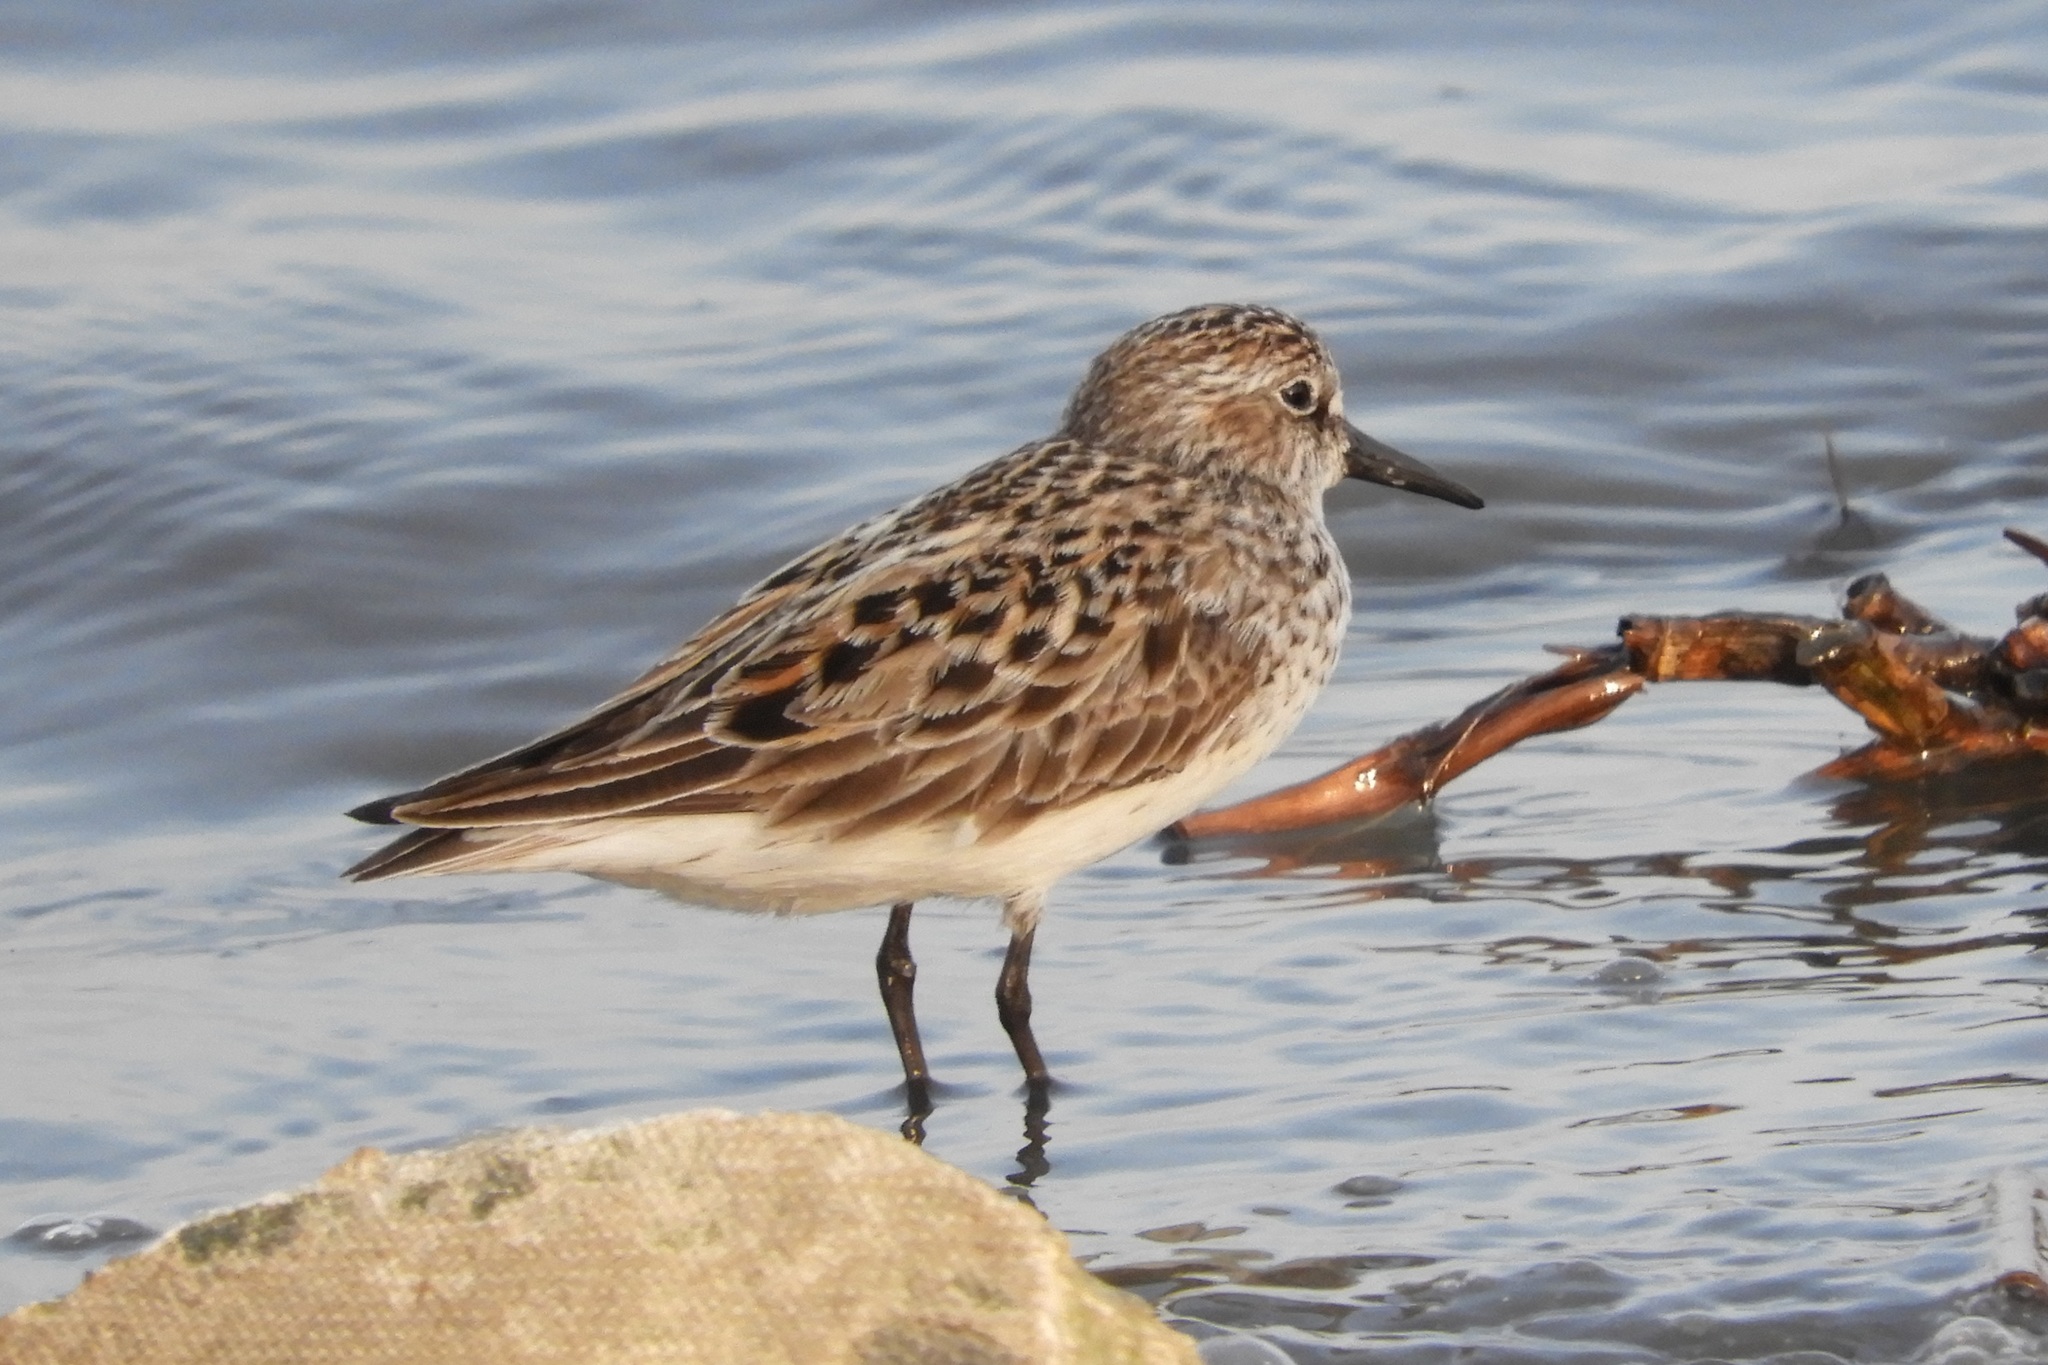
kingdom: Animalia
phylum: Chordata
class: Aves
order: Charadriiformes
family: Scolopacidae
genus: Calidris
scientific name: Calidris pusilla
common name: Semipalmated sandpiper
